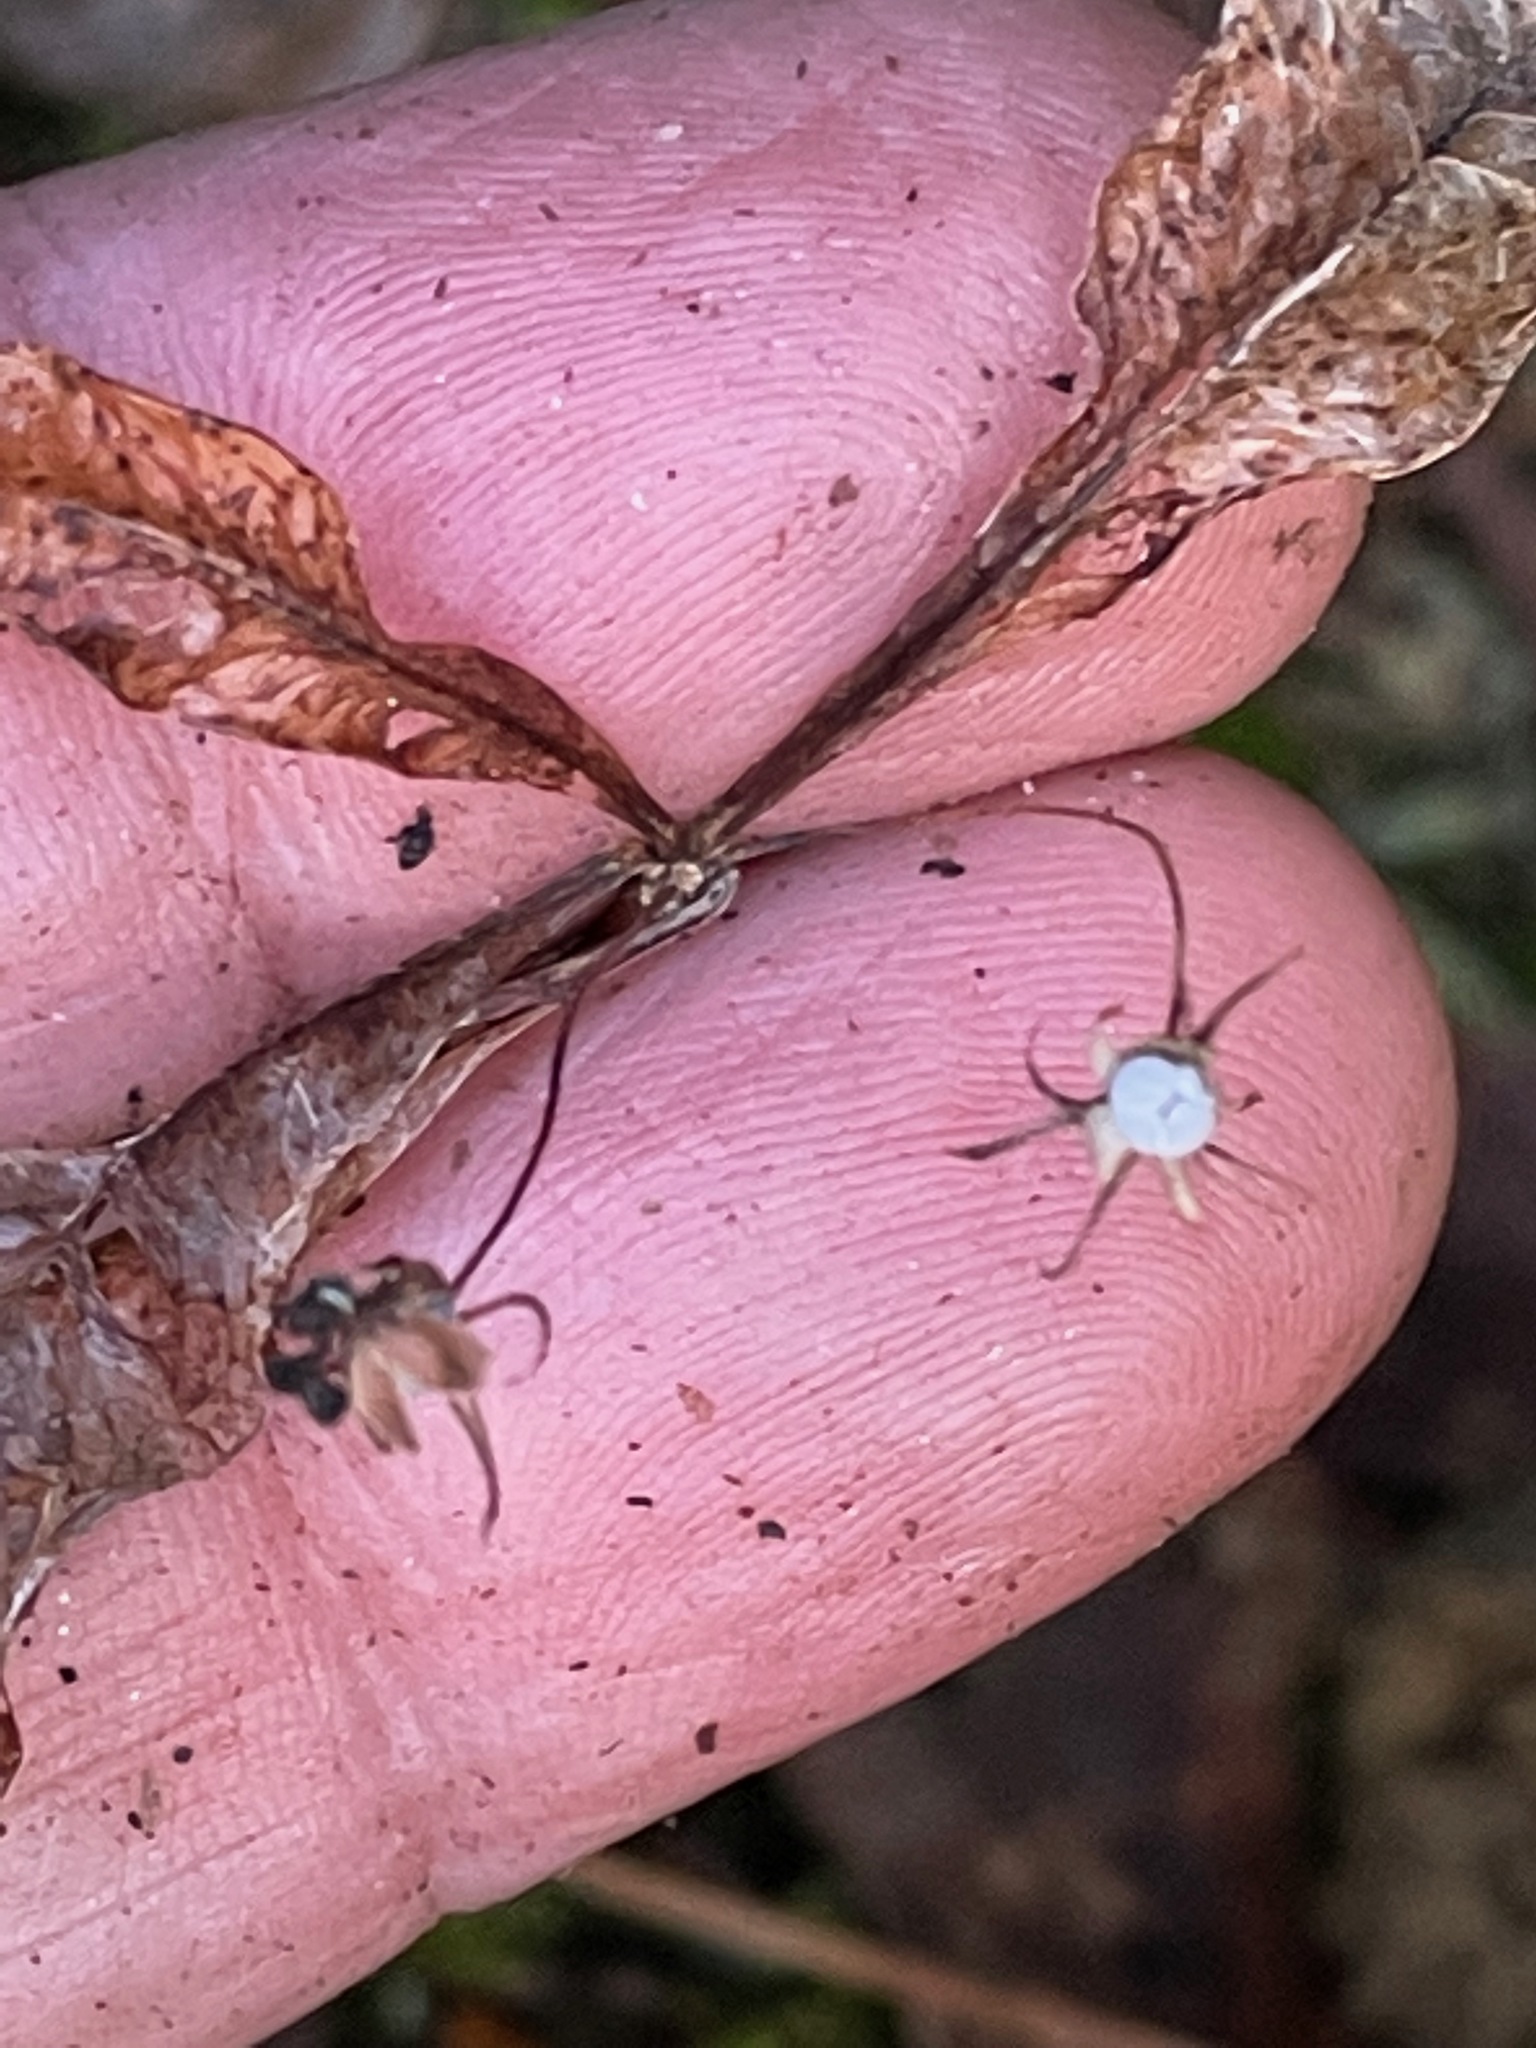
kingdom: Plantae
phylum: Tracheophyta
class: Magnoliopsida
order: Ericales
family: Primulaceae
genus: Lysimachia
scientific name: Lysimachia borealis
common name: American starflower
